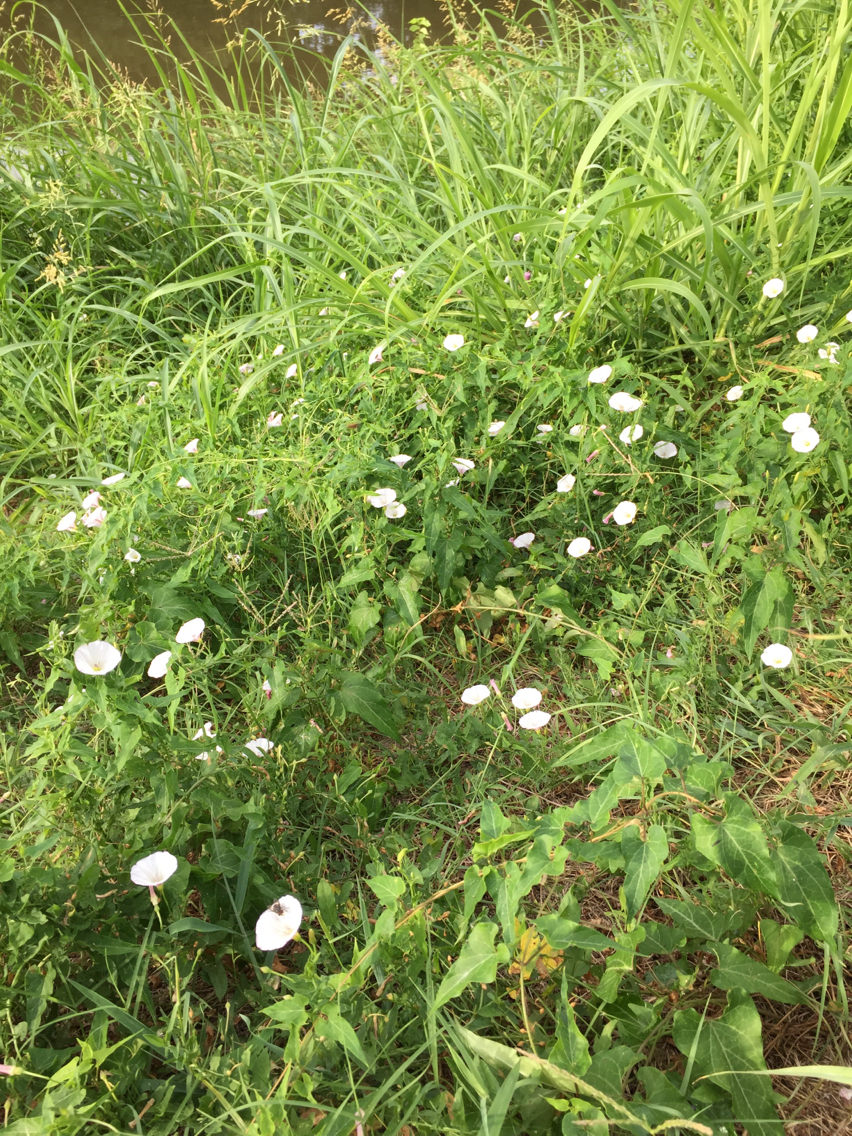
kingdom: Plantae
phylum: Tracheophyta
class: Magnoliopsida
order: Solanales
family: Convolvulaceae
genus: Convolvulus
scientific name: Convolvulus arvensis
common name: Field bindweed
